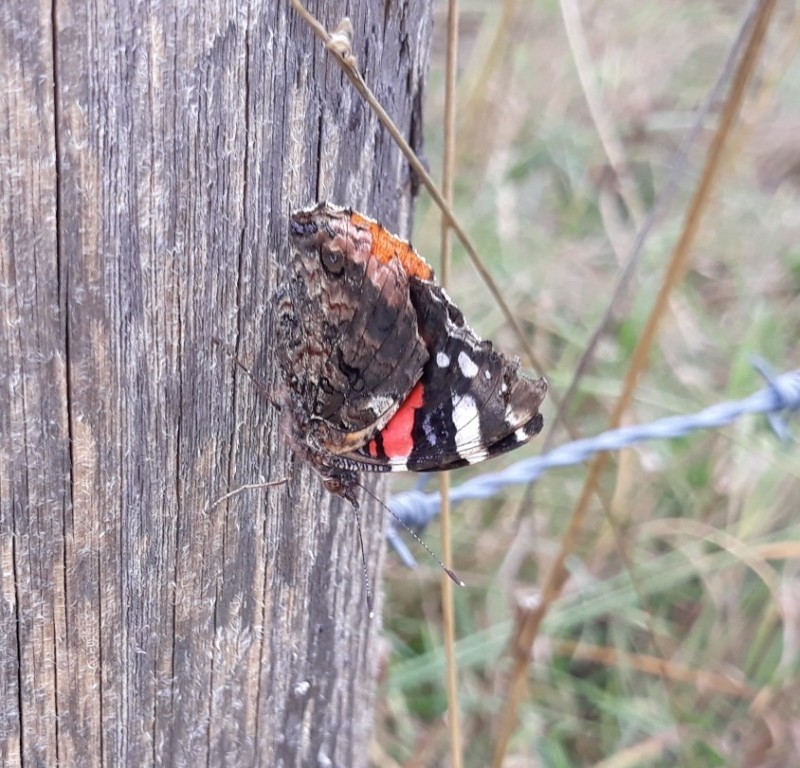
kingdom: Animalia
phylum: Arthropoda
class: Insecta
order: Lepidoptera
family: Nymphalidae
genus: Vanessa
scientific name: Vanessa atalanta
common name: Red admiral
